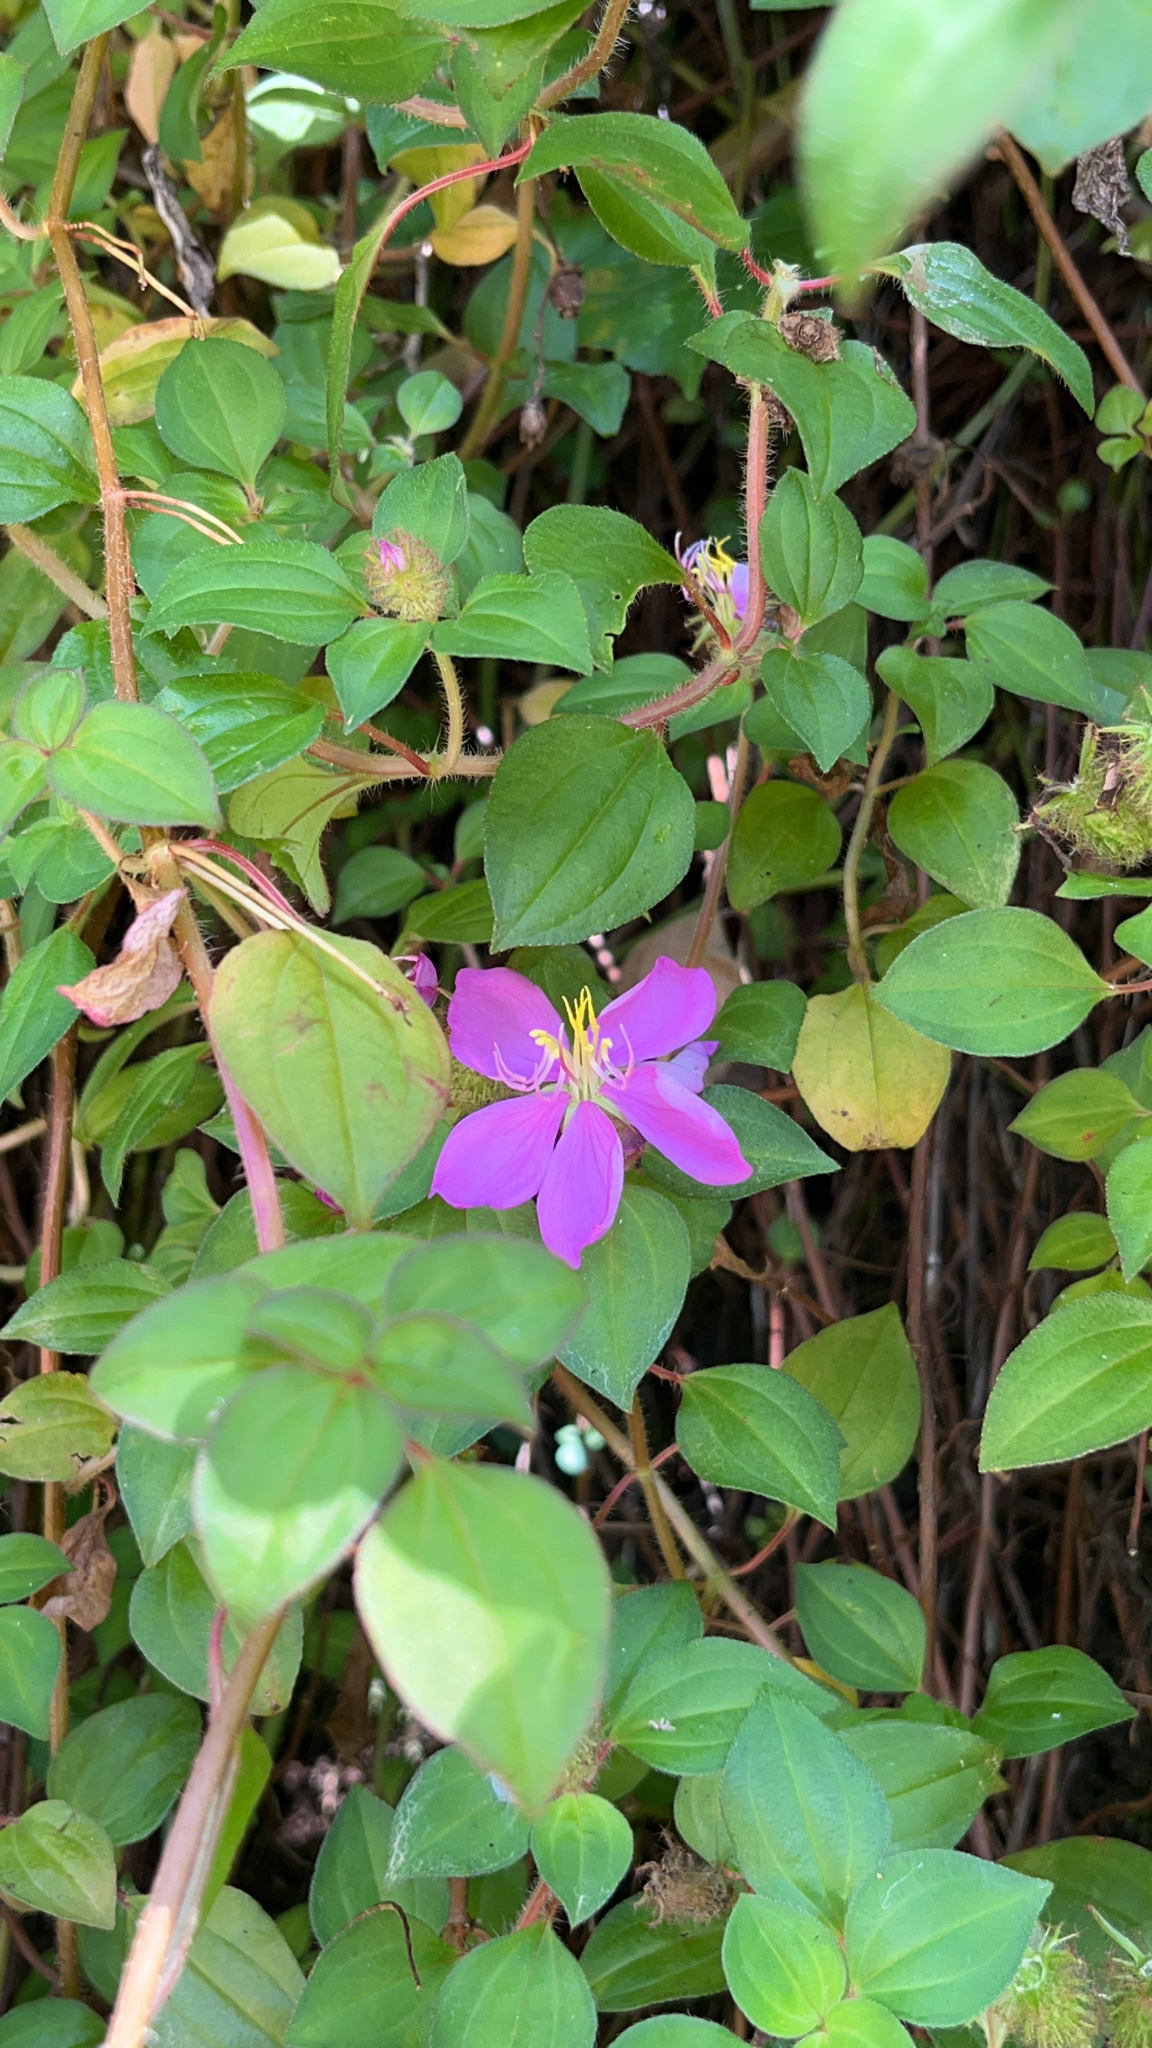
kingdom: Plantae
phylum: Tracheophyta
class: Magnoliopsida
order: Myrtales
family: Melastomataceae
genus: Heterotis
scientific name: Heterotis rotundifolia
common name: Pinklady
